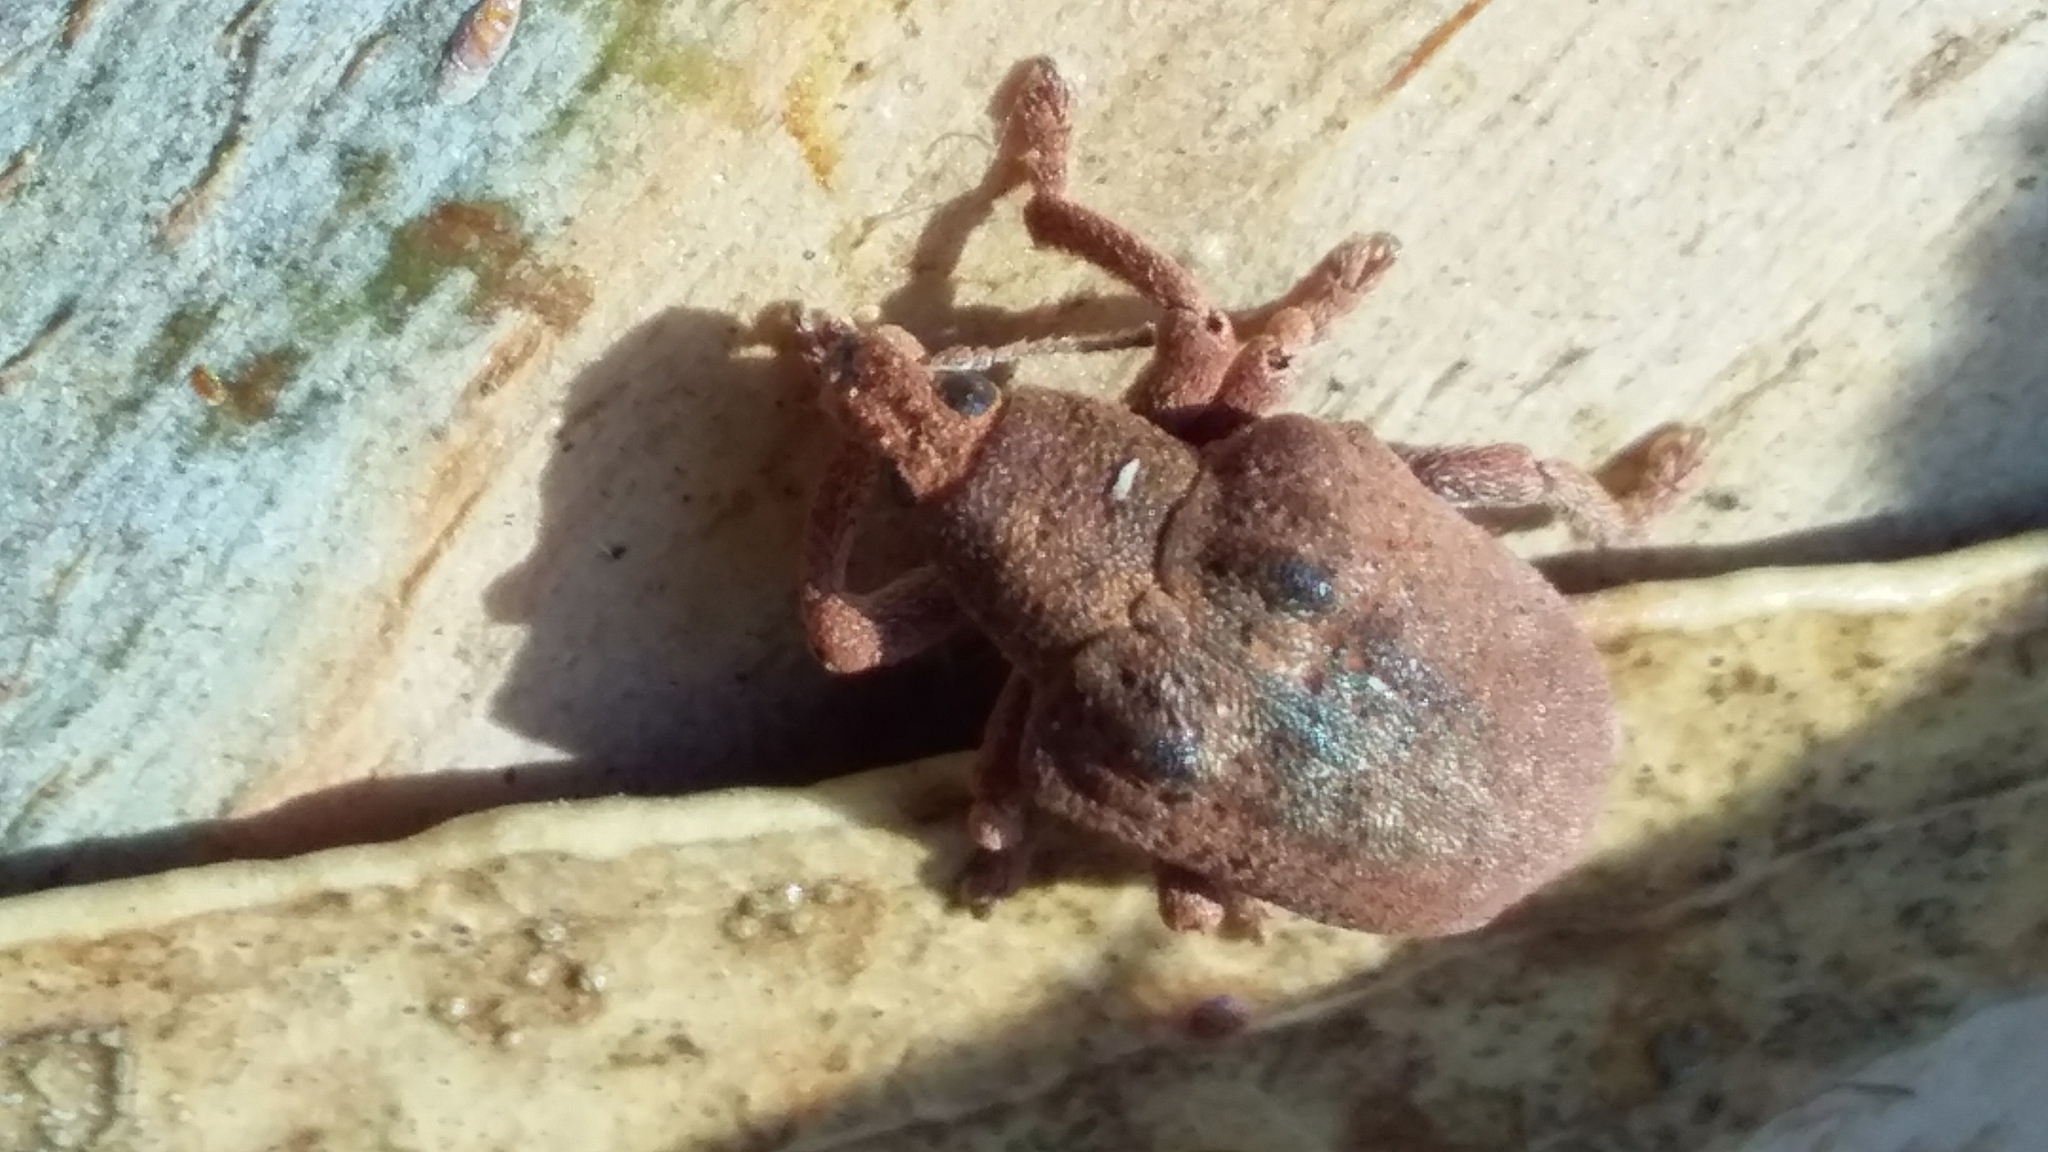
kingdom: Animalia
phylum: Arthropoda
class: Insecta
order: Coleoptera
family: Curculionidae
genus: Gonipterus
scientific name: Gonipterus platensis
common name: Eucalyptus snout beetle
